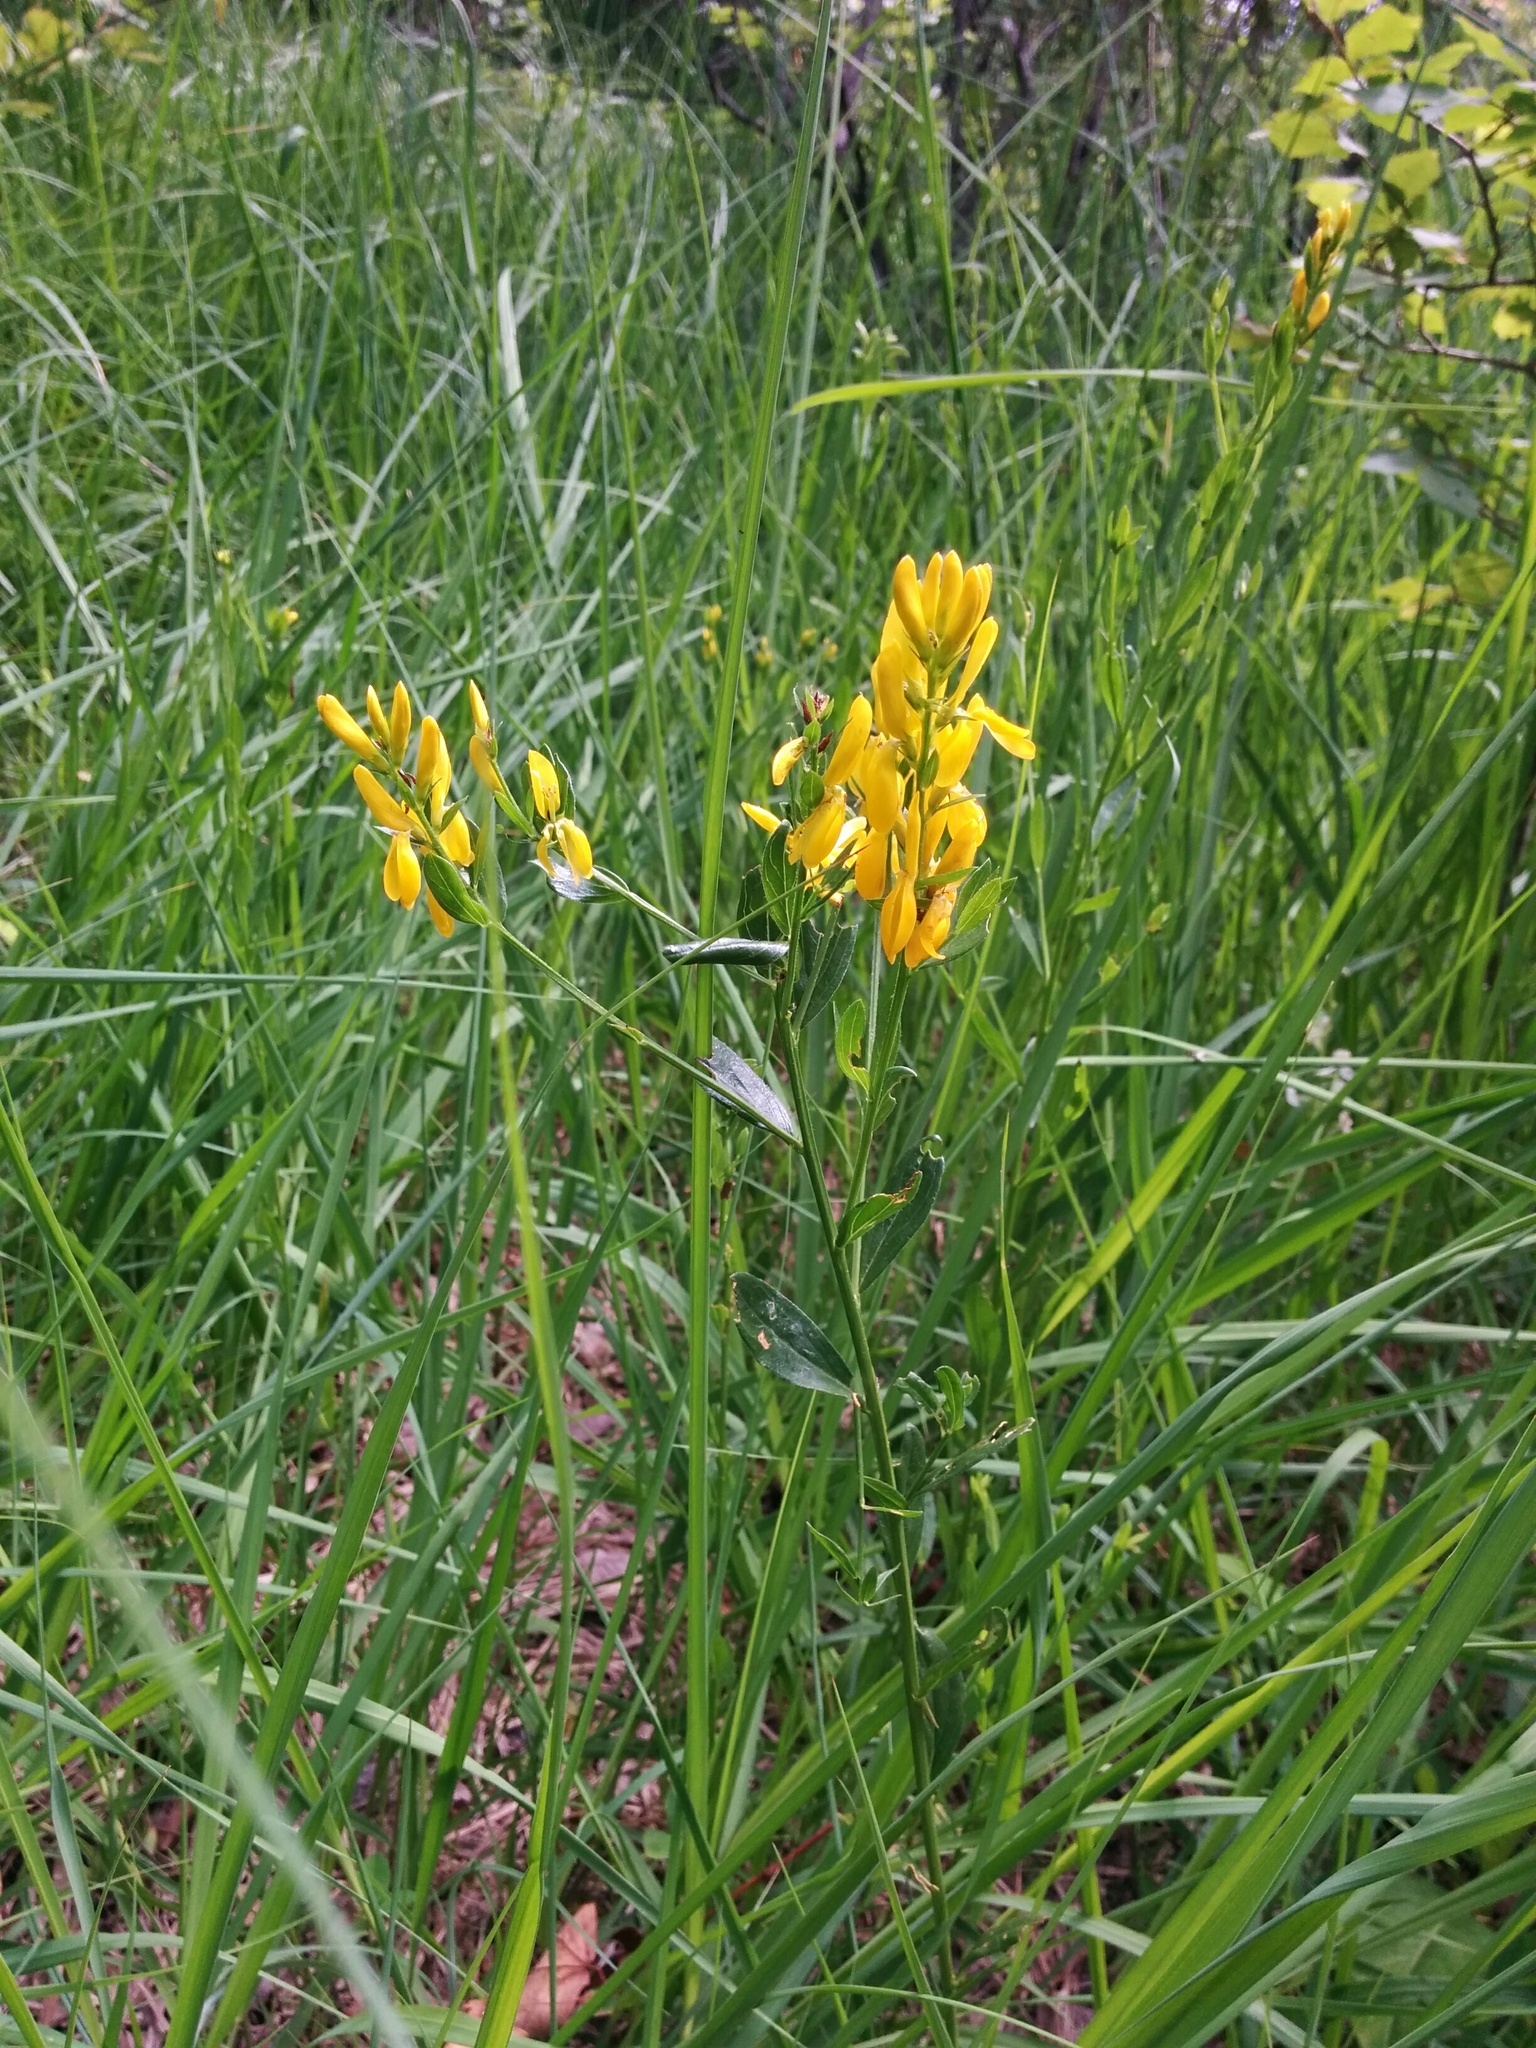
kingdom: Plantae
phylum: Tracheophyta
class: Magnoliopsida
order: Fabales
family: Fabaceae
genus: Genista
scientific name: Genista tinctoria
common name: Dyer's greenweed
